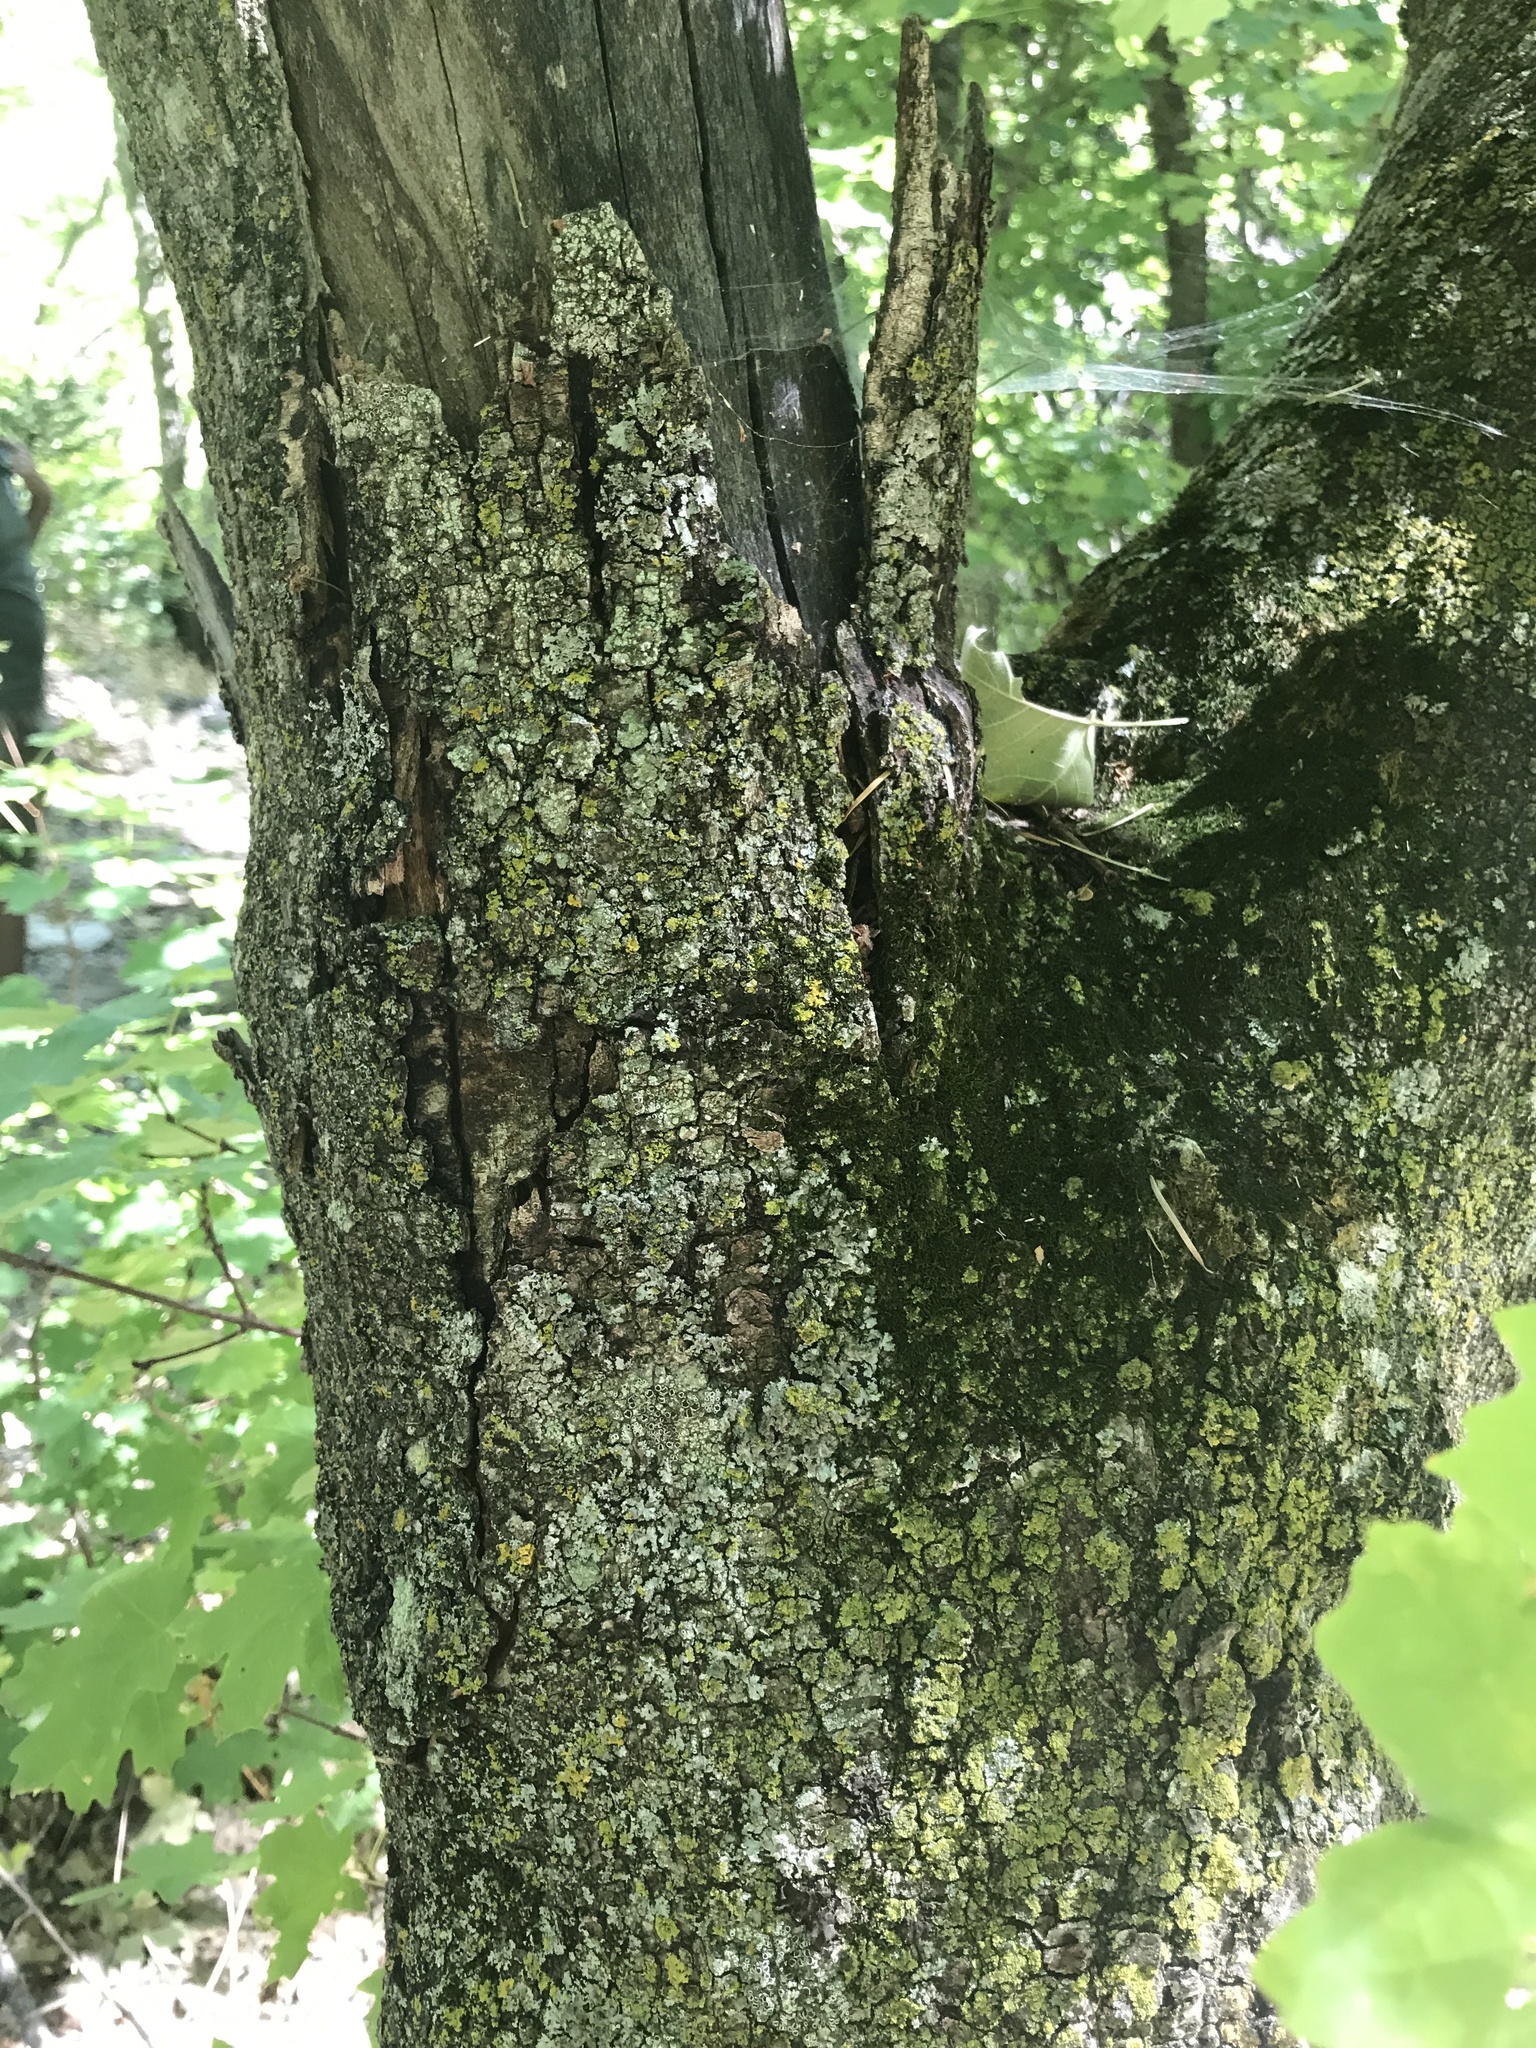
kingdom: Plantae
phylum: Tracheophyta
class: Magnoliopsida
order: Sapindales
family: Sapindaceae
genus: Acer
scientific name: Acer grandidentatum
